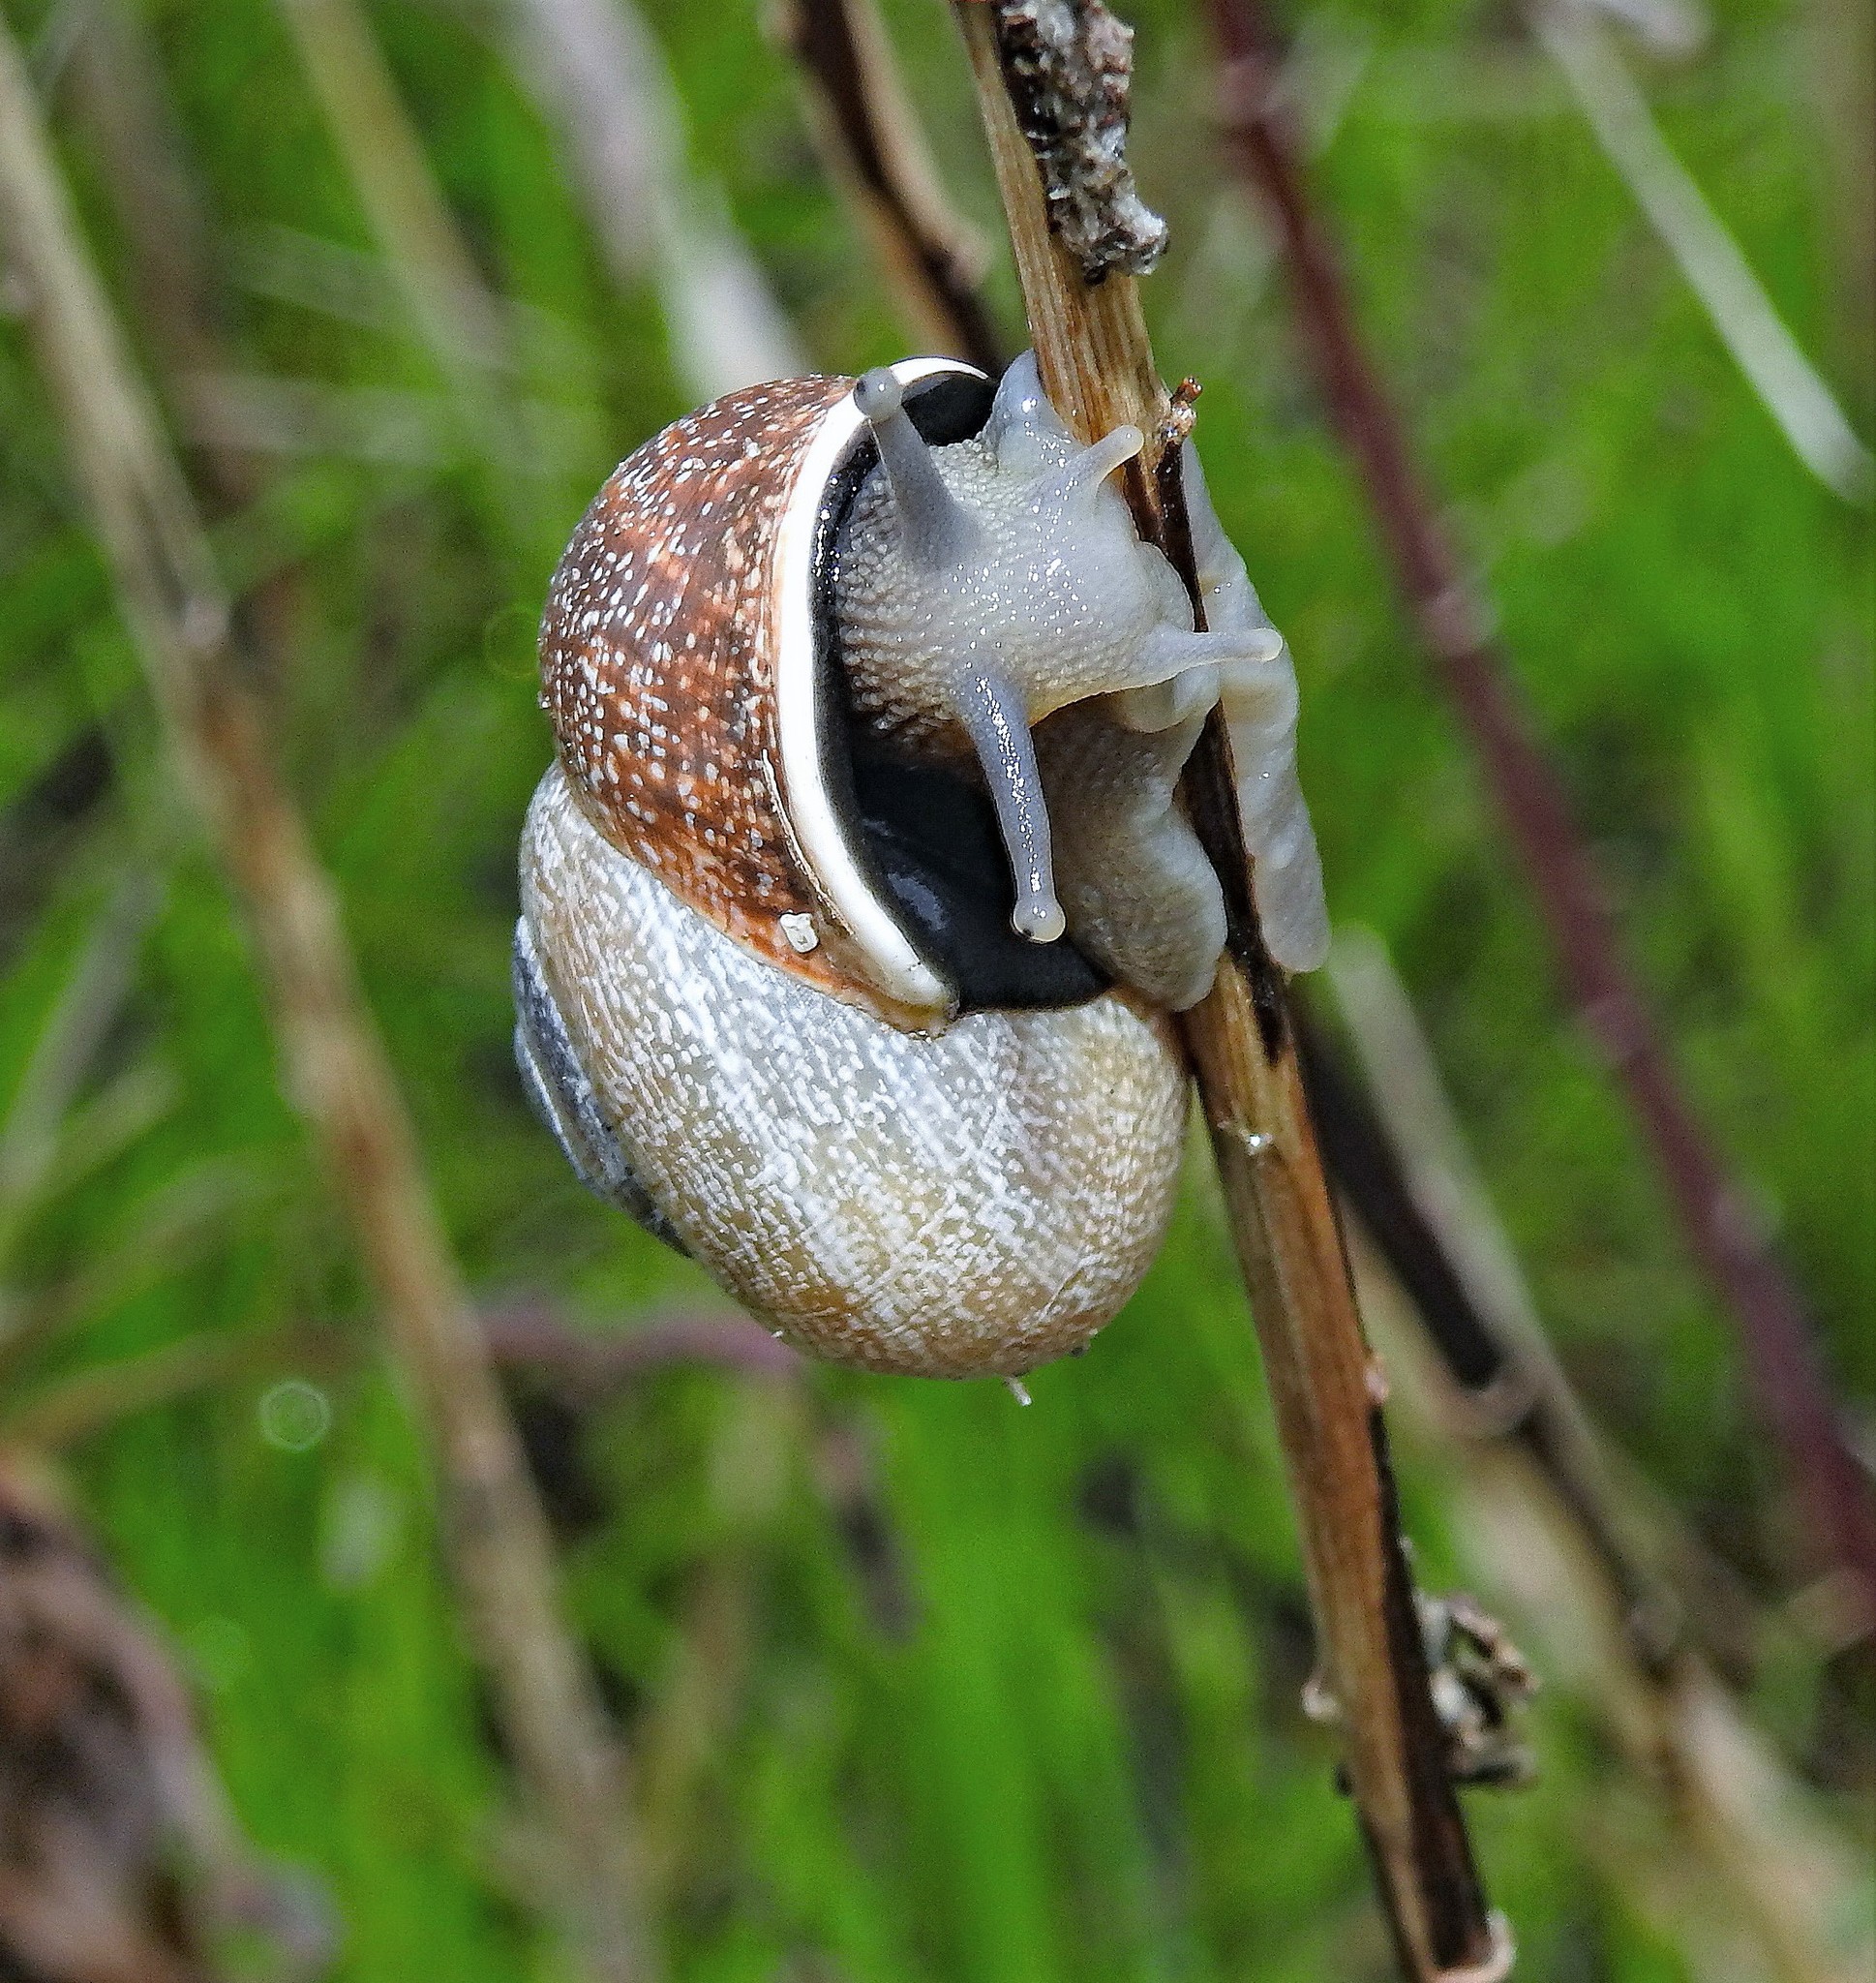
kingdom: Animalia
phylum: Mollusca
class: Gastropoda
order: Stylommatophora
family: Helicidae
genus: Otala
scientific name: Otala punctata
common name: Milk snail
